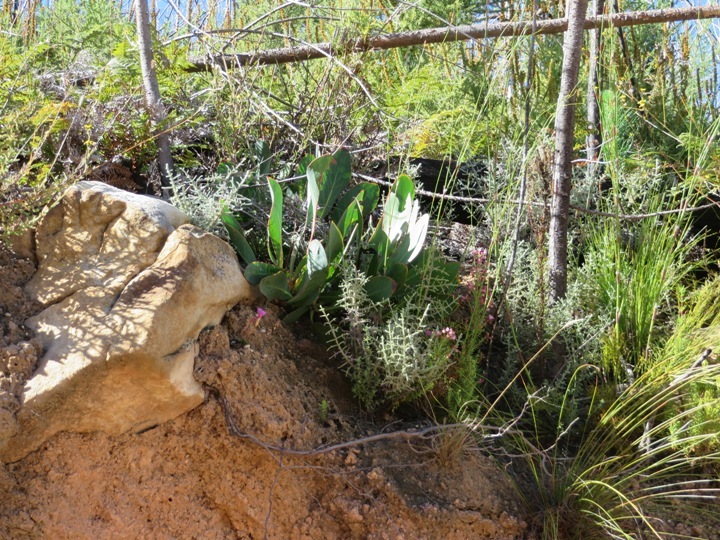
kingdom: Plantae
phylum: Tracheophyta
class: Magnoliopsida
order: Proteales
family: Proteaceae
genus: Protea
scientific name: Protea acaulos
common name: Common ground sugarbush
